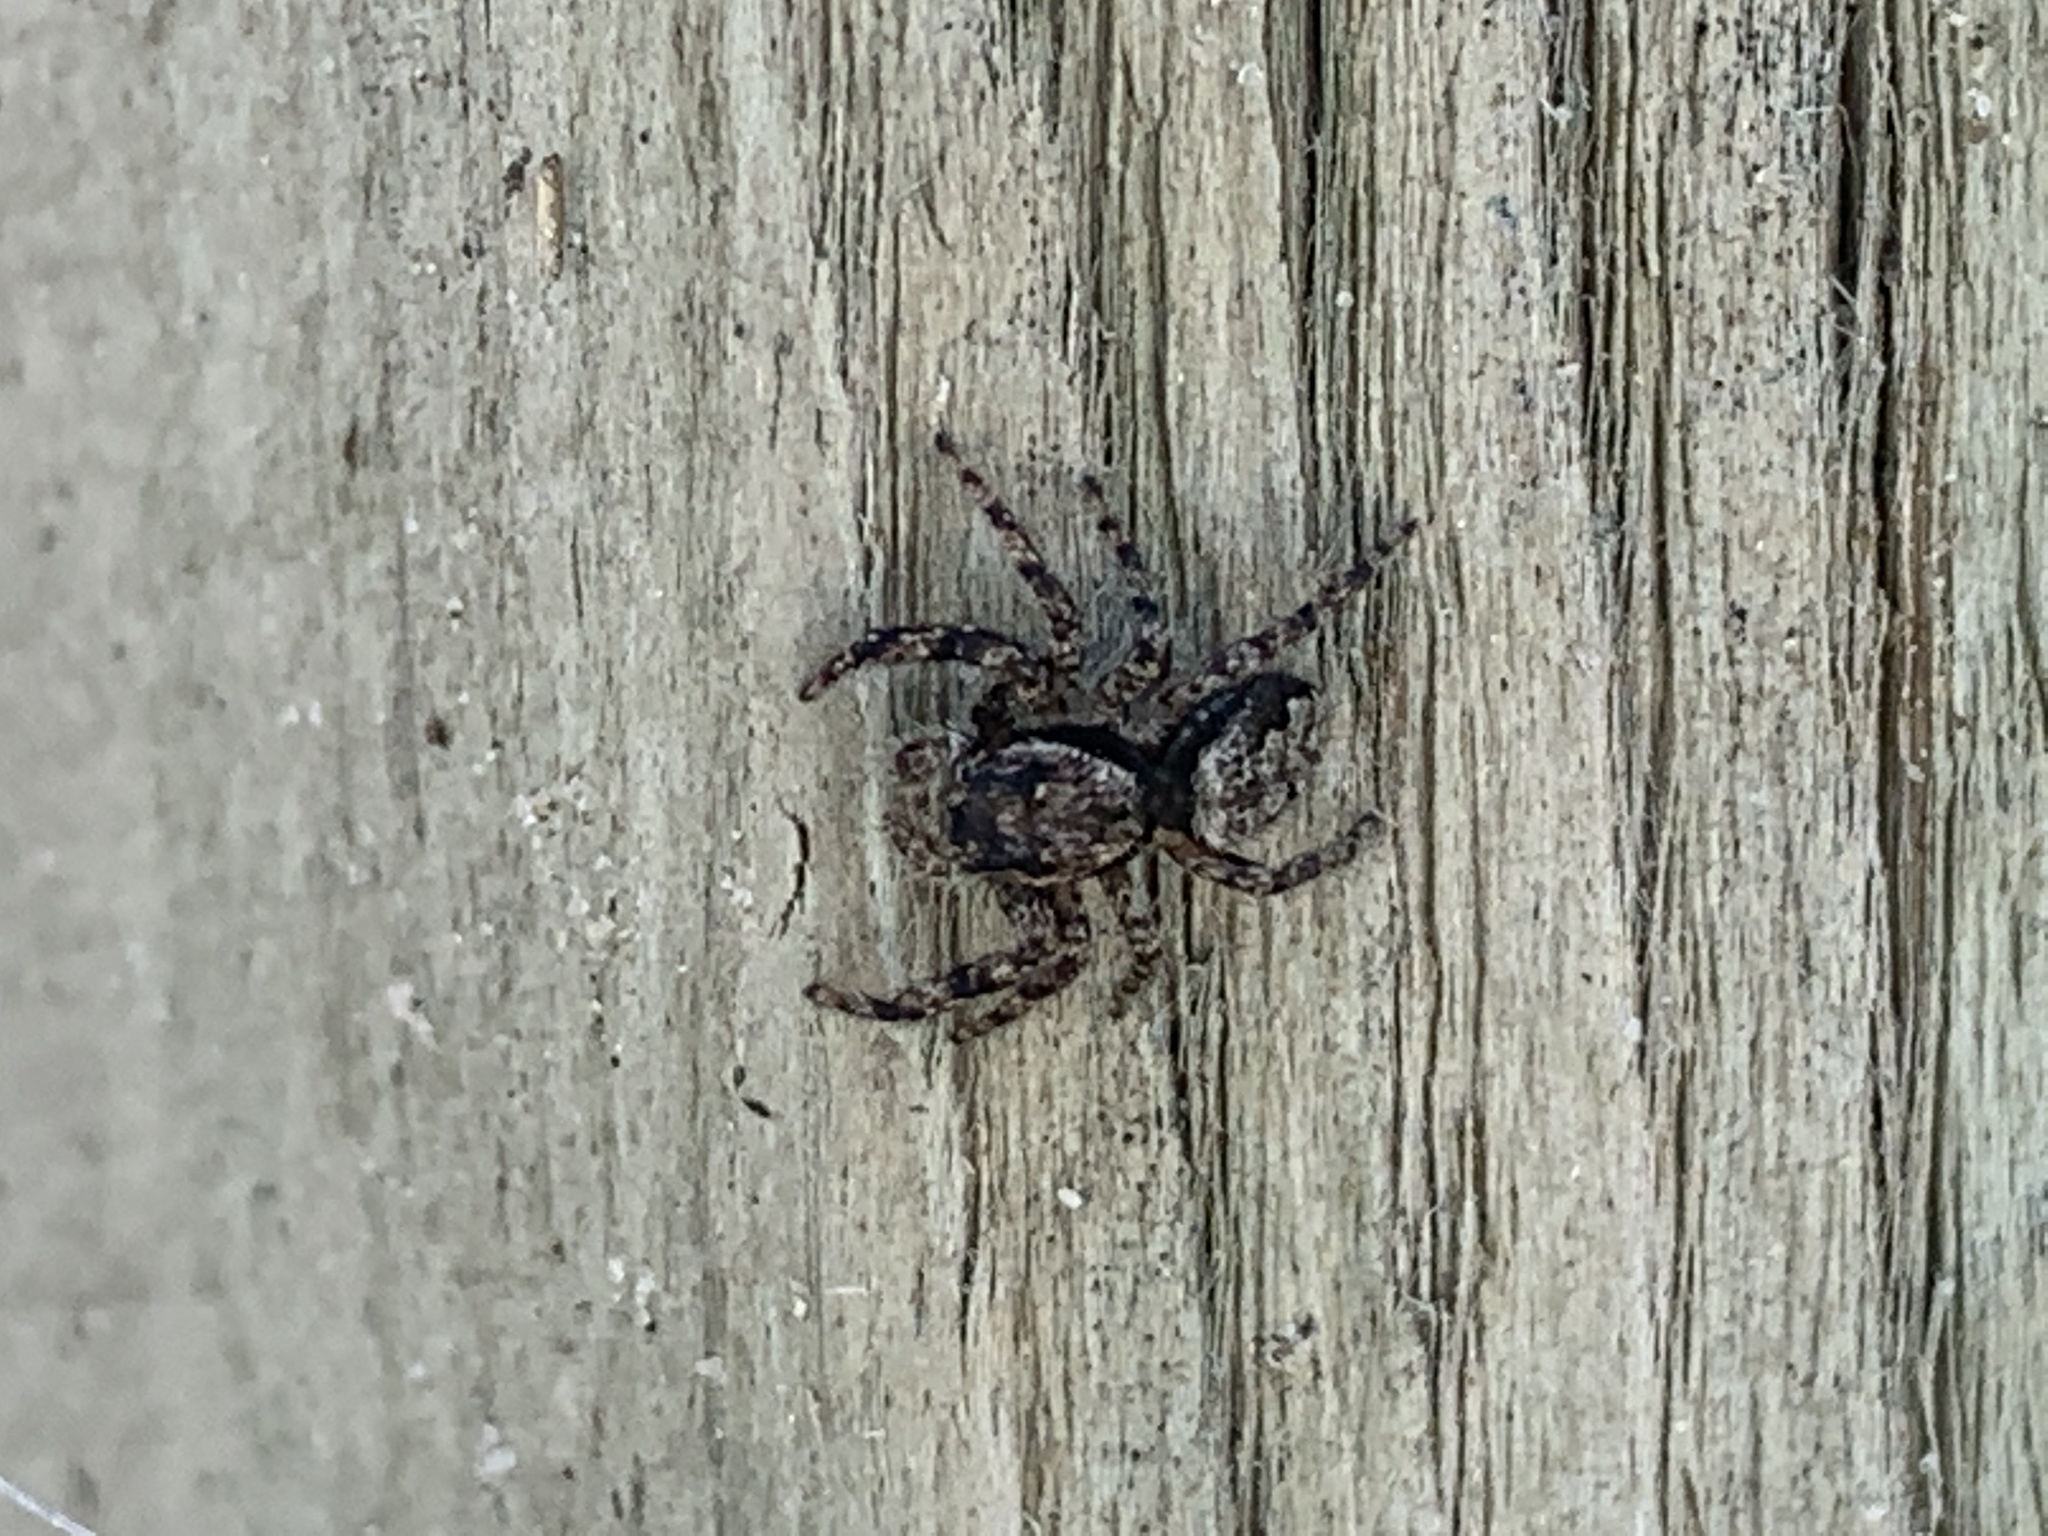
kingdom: Animalia
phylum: Arthropoda
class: Arachnida
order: Araneae
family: Salticidae
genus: Platycryptus
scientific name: Platycryptus undatus
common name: Tan jumping spider
